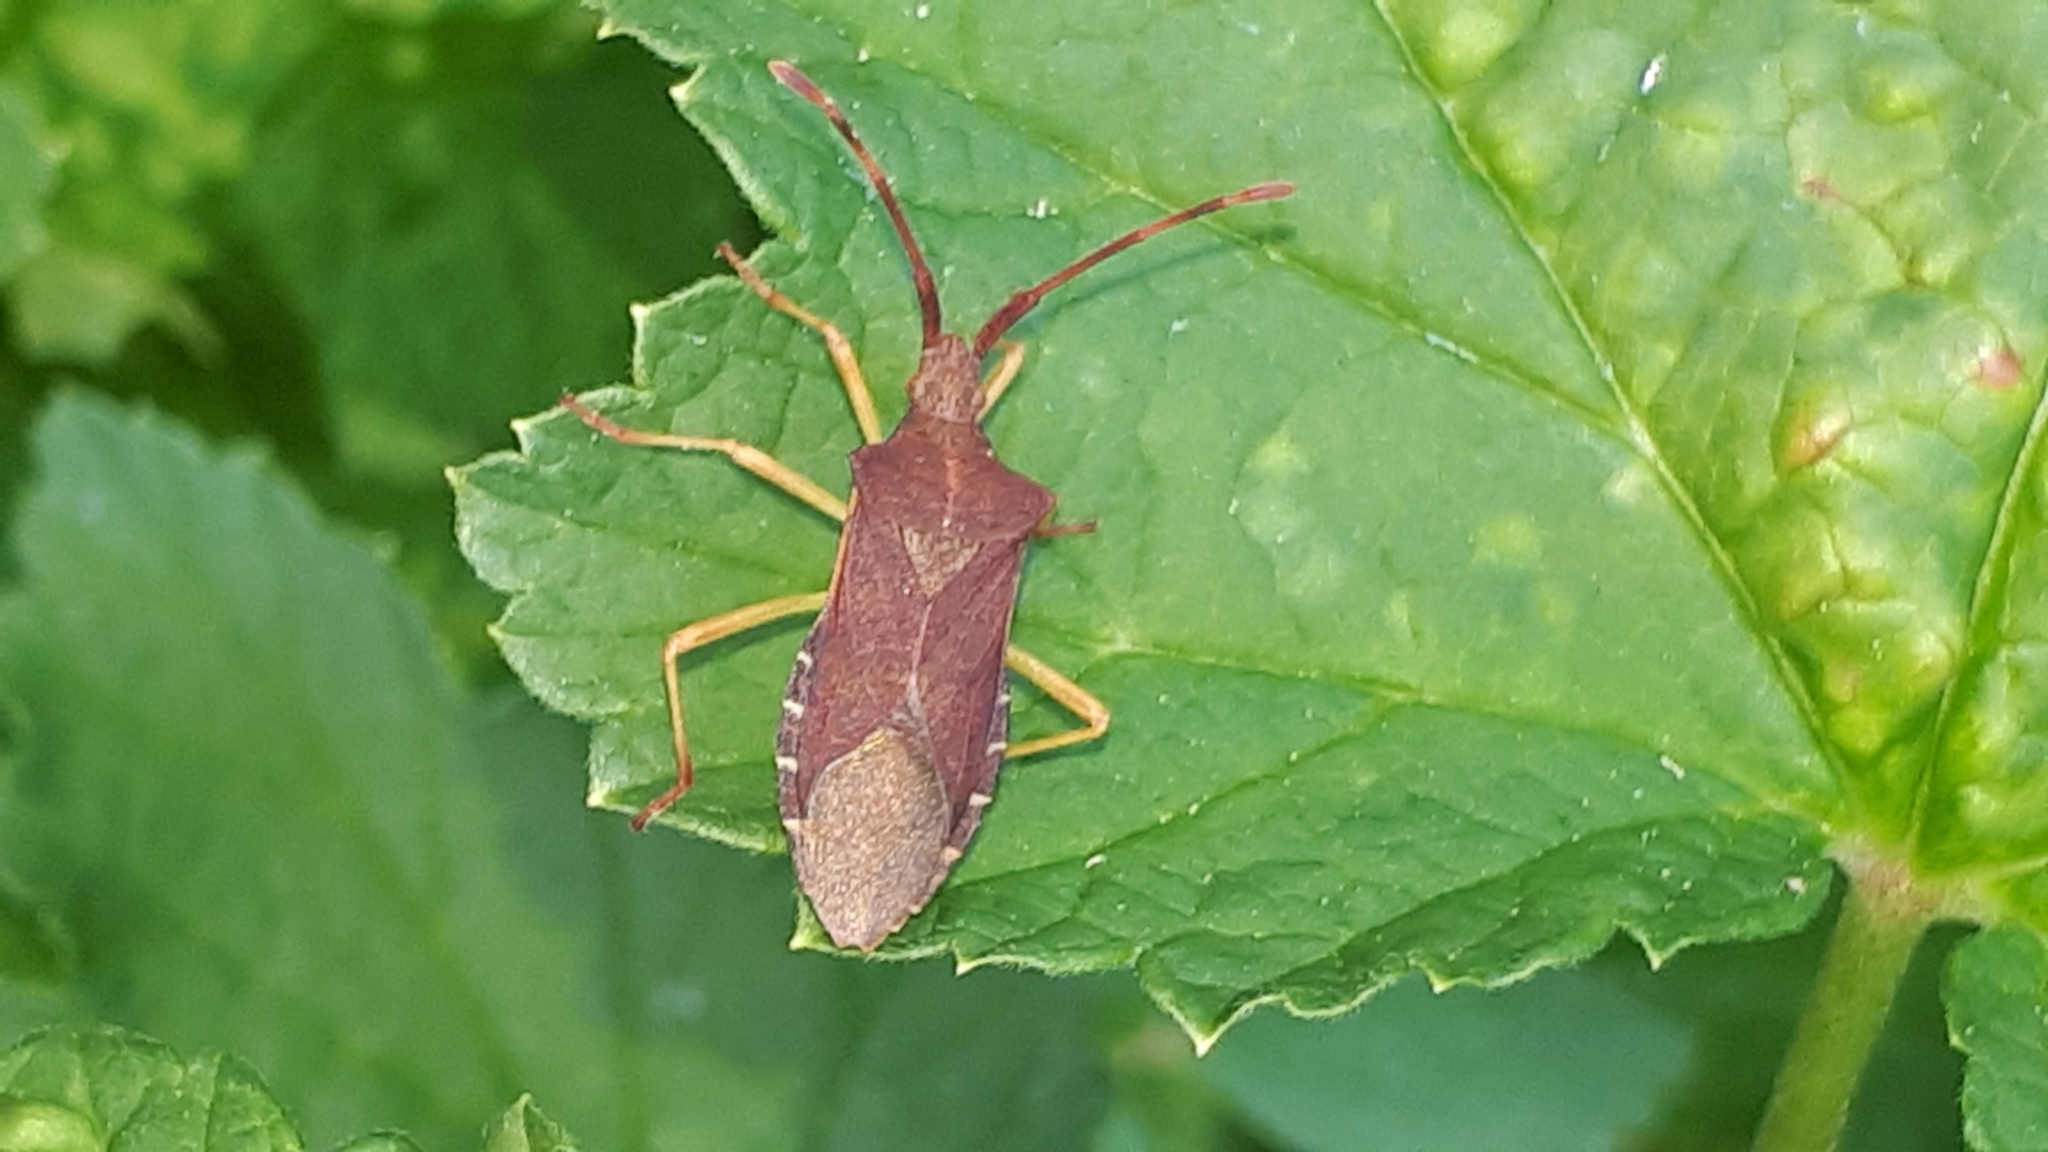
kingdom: Animalia
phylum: Arthropoda
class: Insecta
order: Hemiptera
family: Coreidae
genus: Gonocerus
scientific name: Gonocerus acuteangulatus
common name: Box bug
